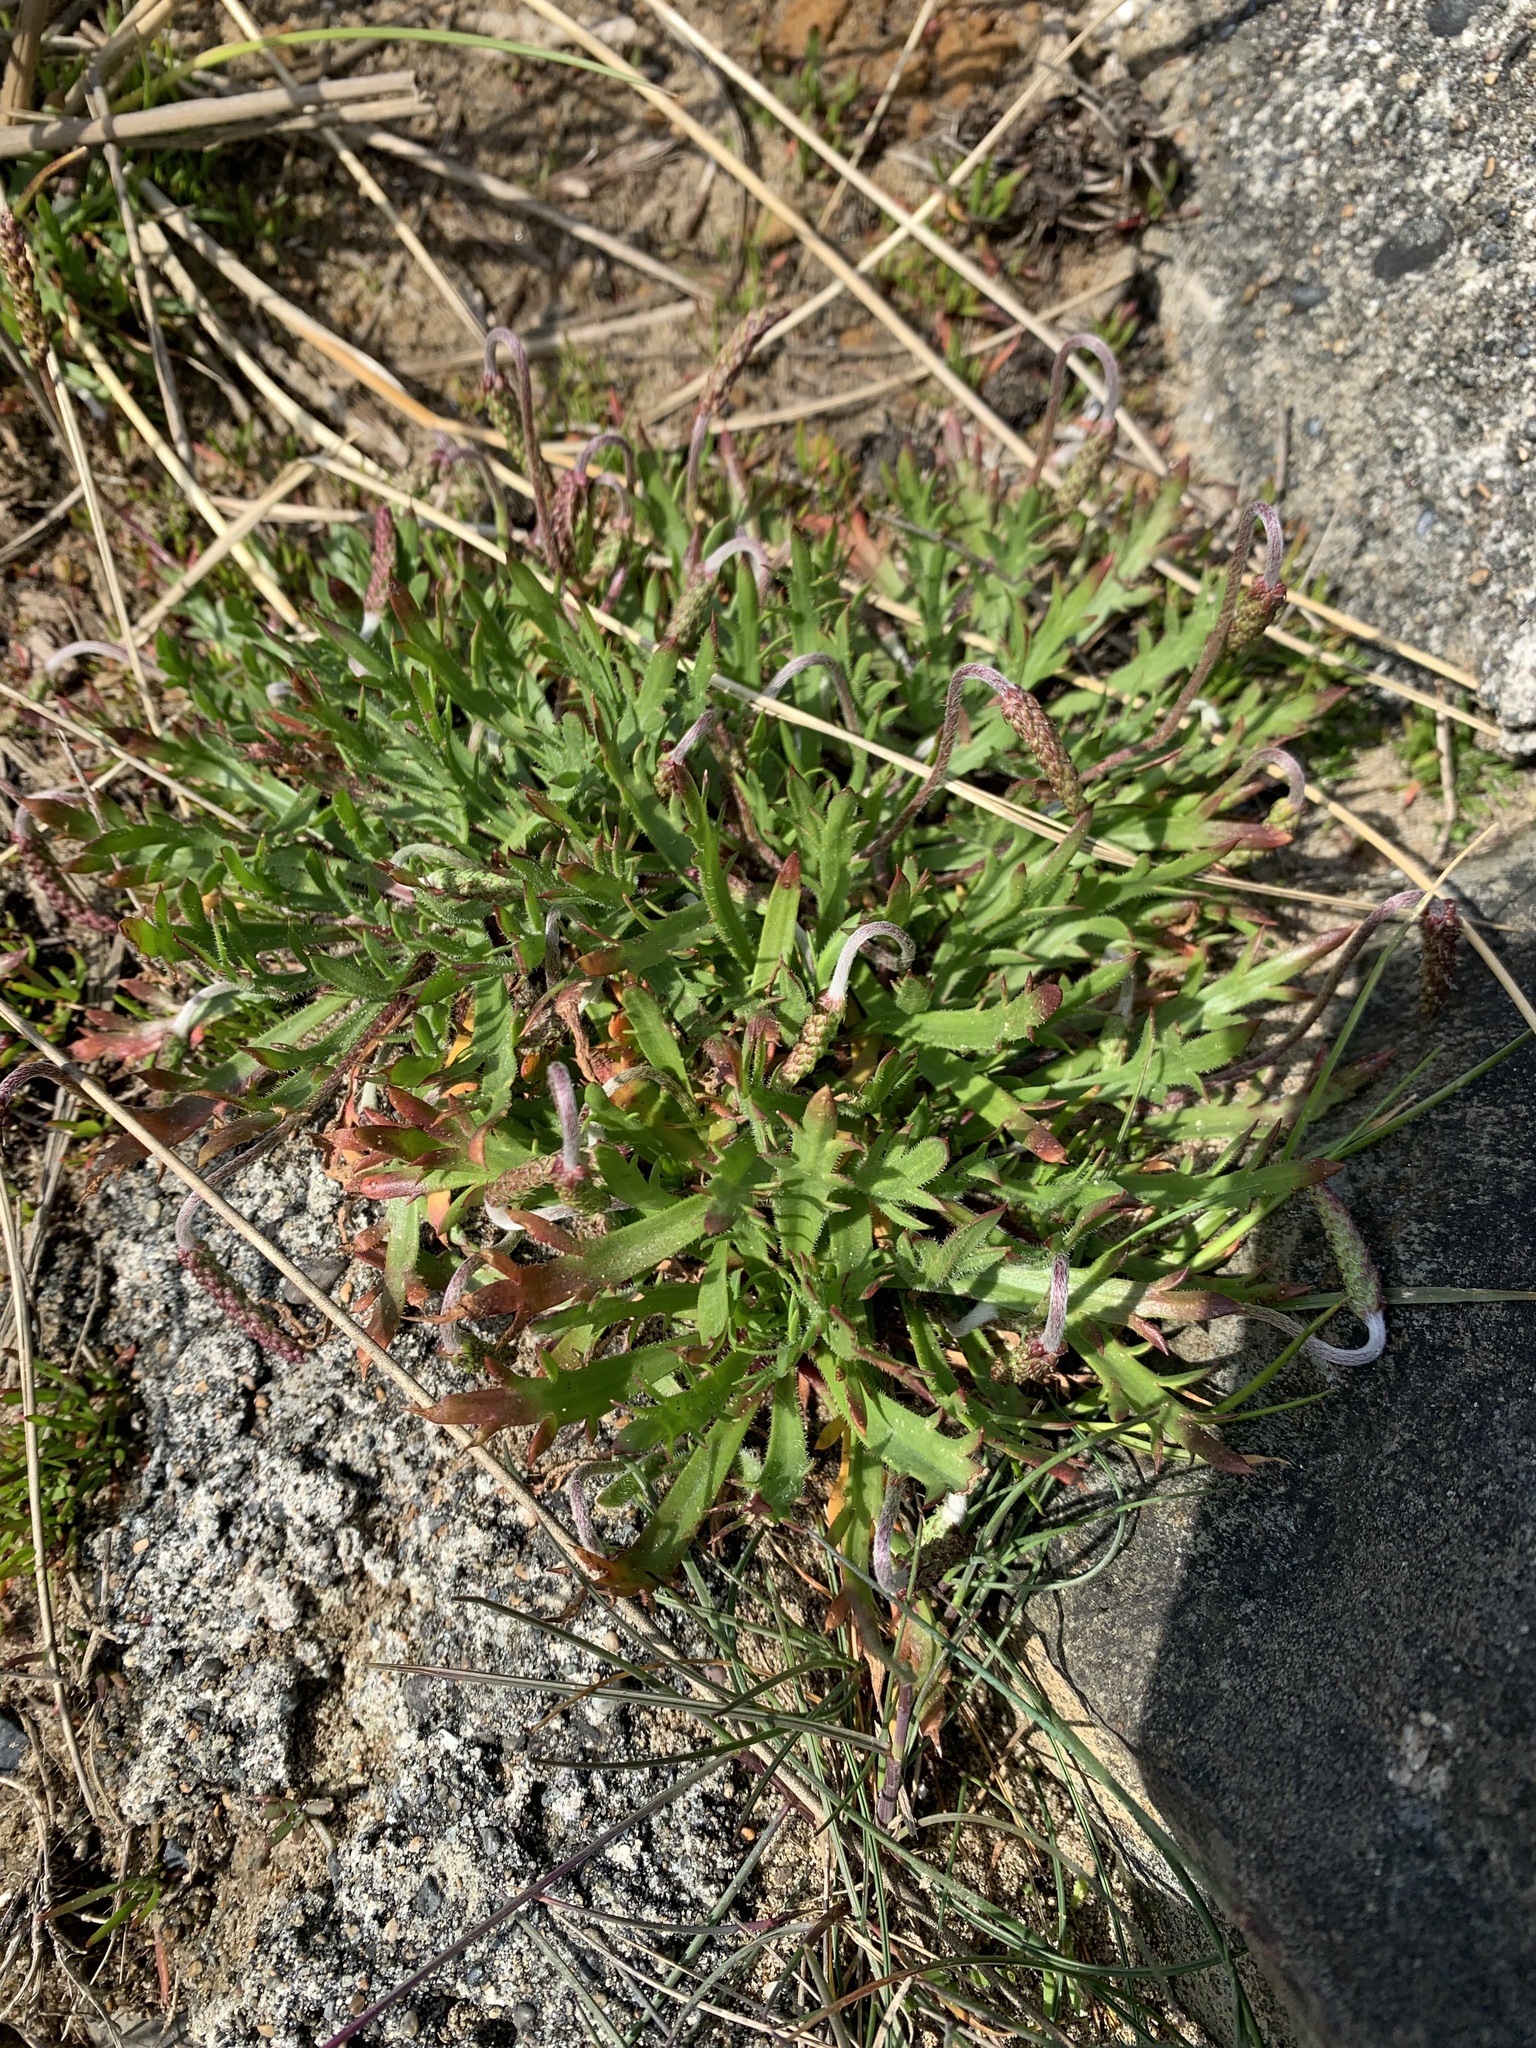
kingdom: Plantae
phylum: Tracheophyta
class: Magnoliopsida
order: Lamiales
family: Plantaginaceae
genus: Plantago
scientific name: Plantago coronopus
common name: Buck's-horn plantain
